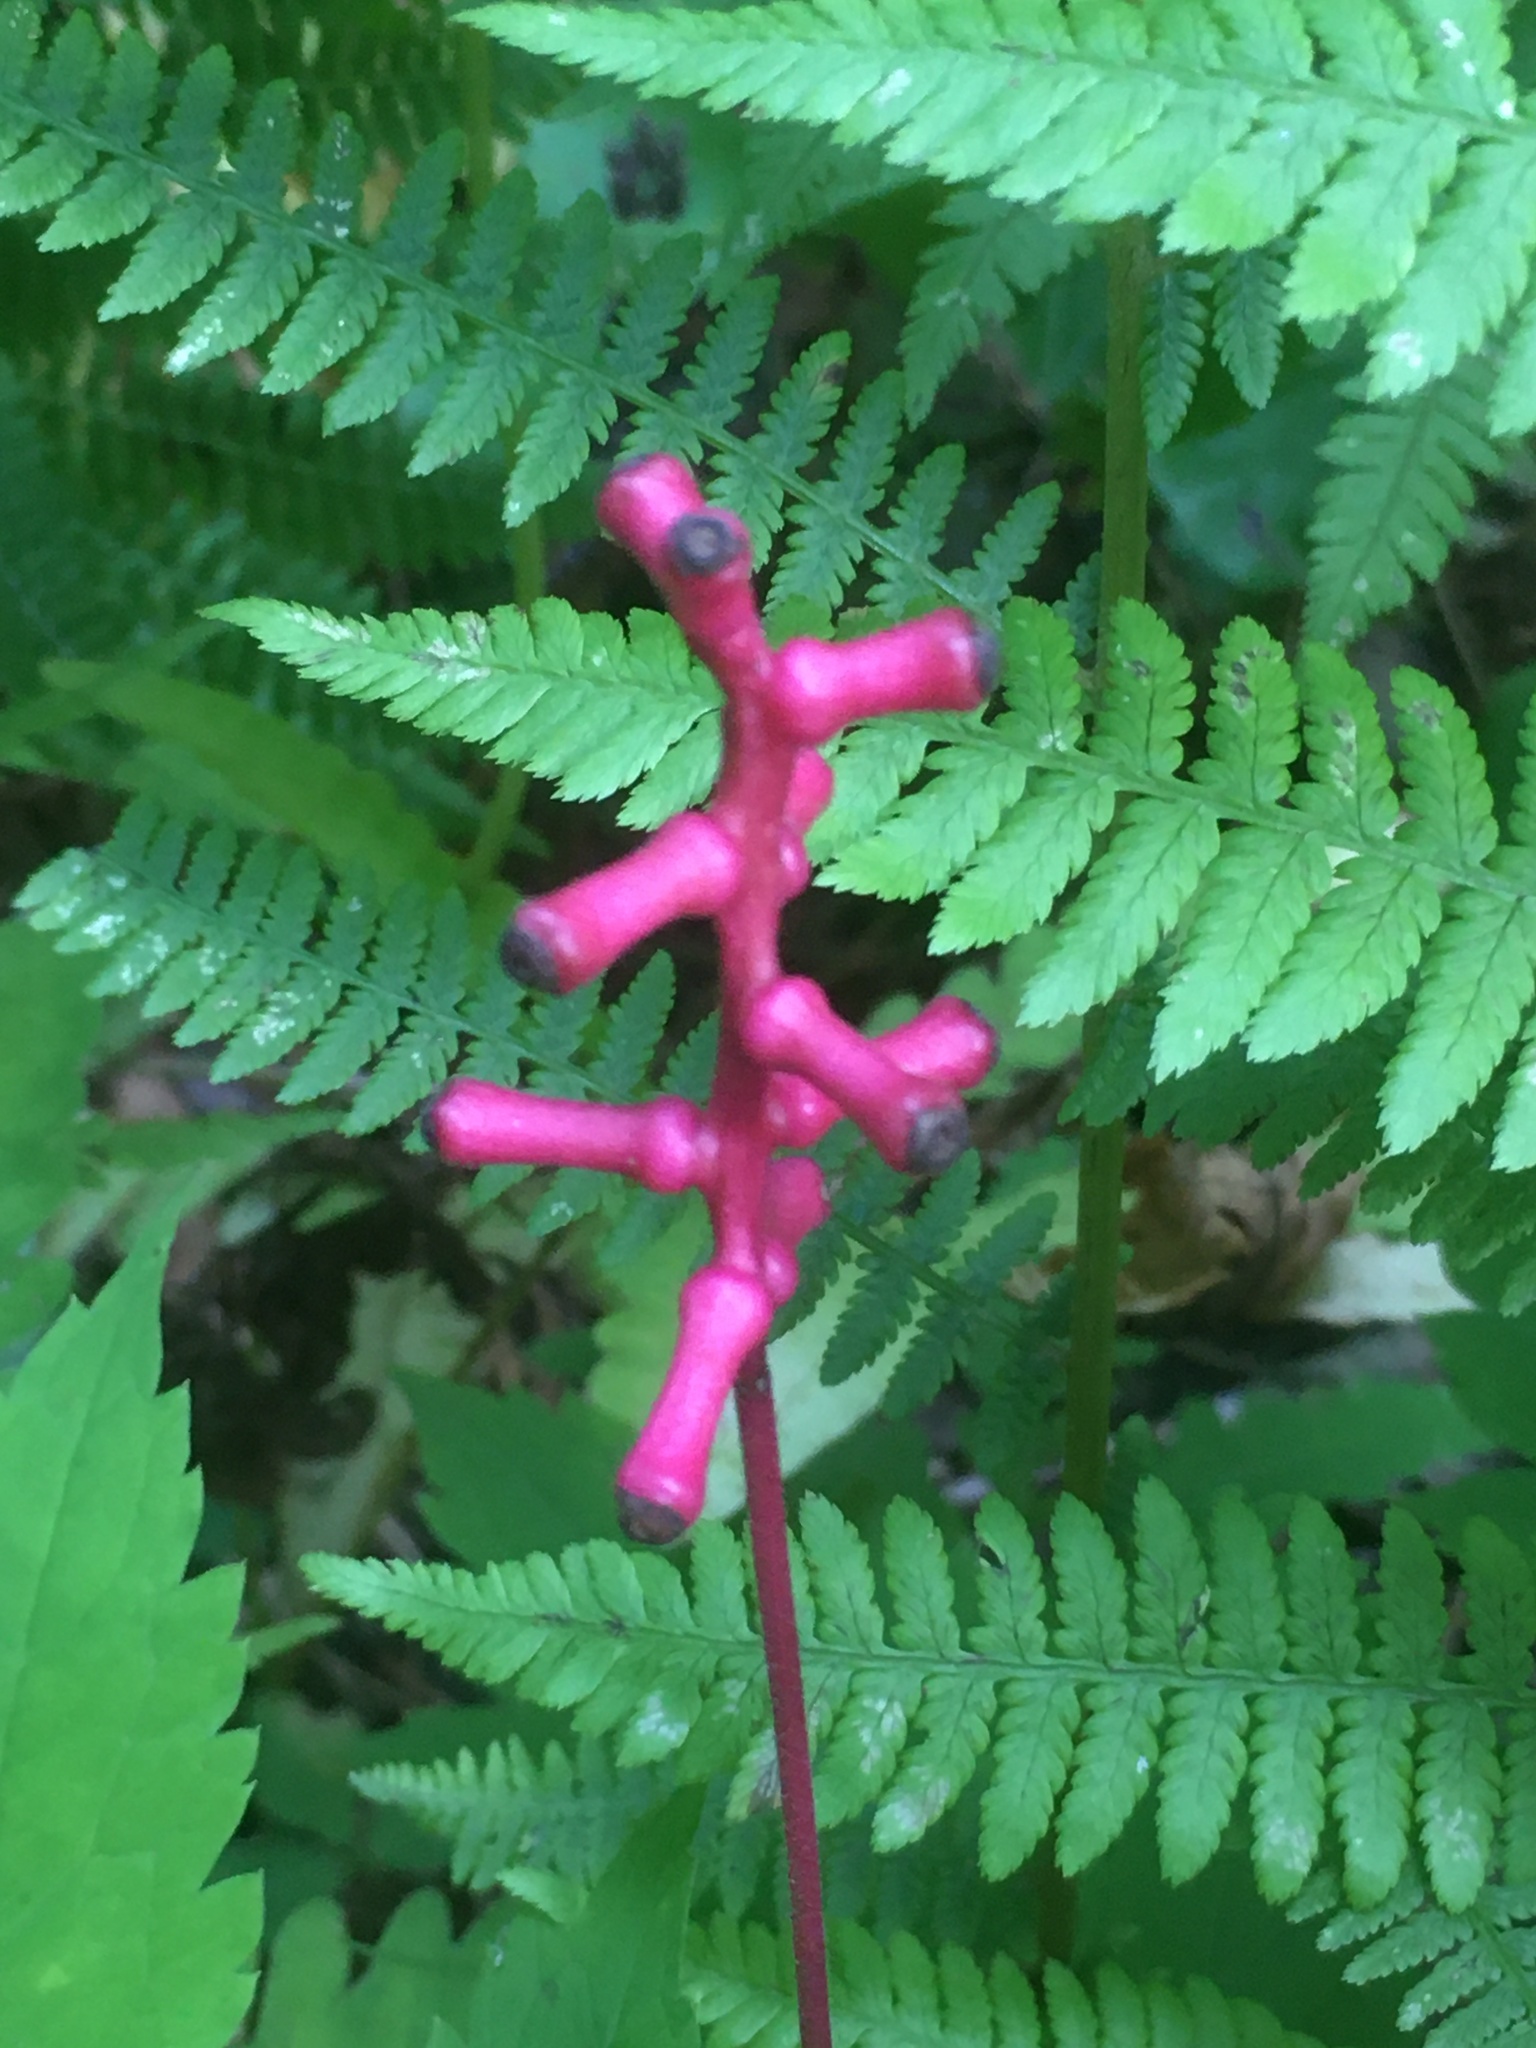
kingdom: Plantae
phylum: Tracheophyta
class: Magnoliopsida
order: Ranunculales
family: Ranunculaceae
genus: Actaea
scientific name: Actaea pachypoda
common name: Doll's-eyes
